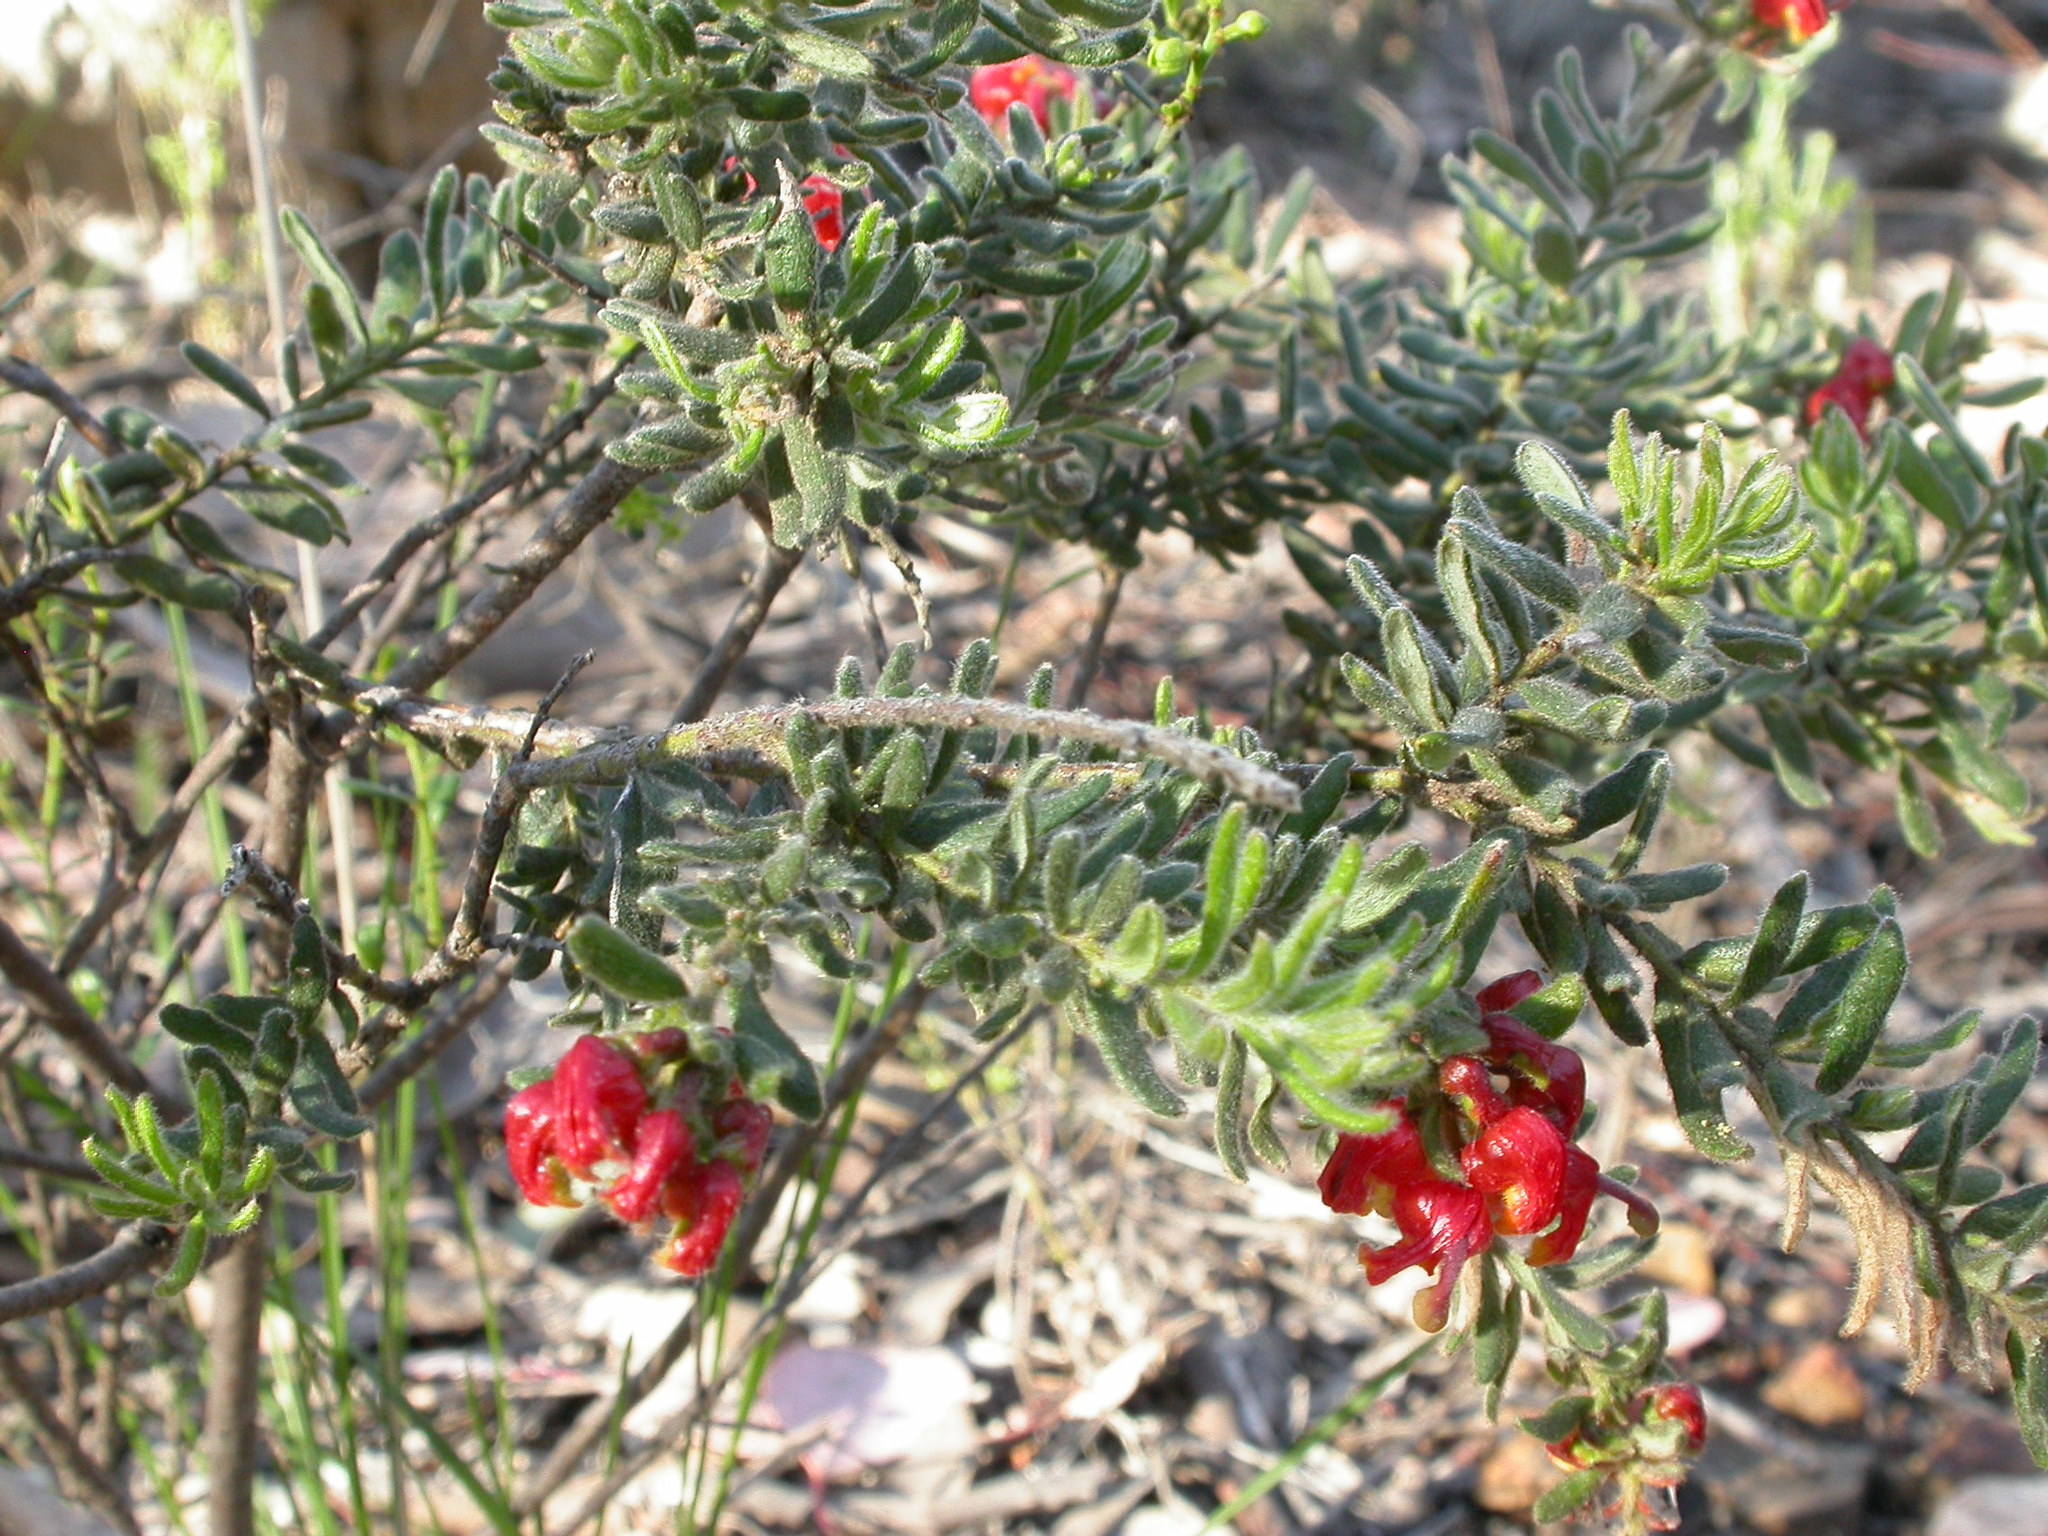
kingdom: Plantae
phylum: Tracheophyta
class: Magnoliopsida
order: Proteales
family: Proteaceae
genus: Grevillea
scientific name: Grevillea alpina
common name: Catclaws grevillea
